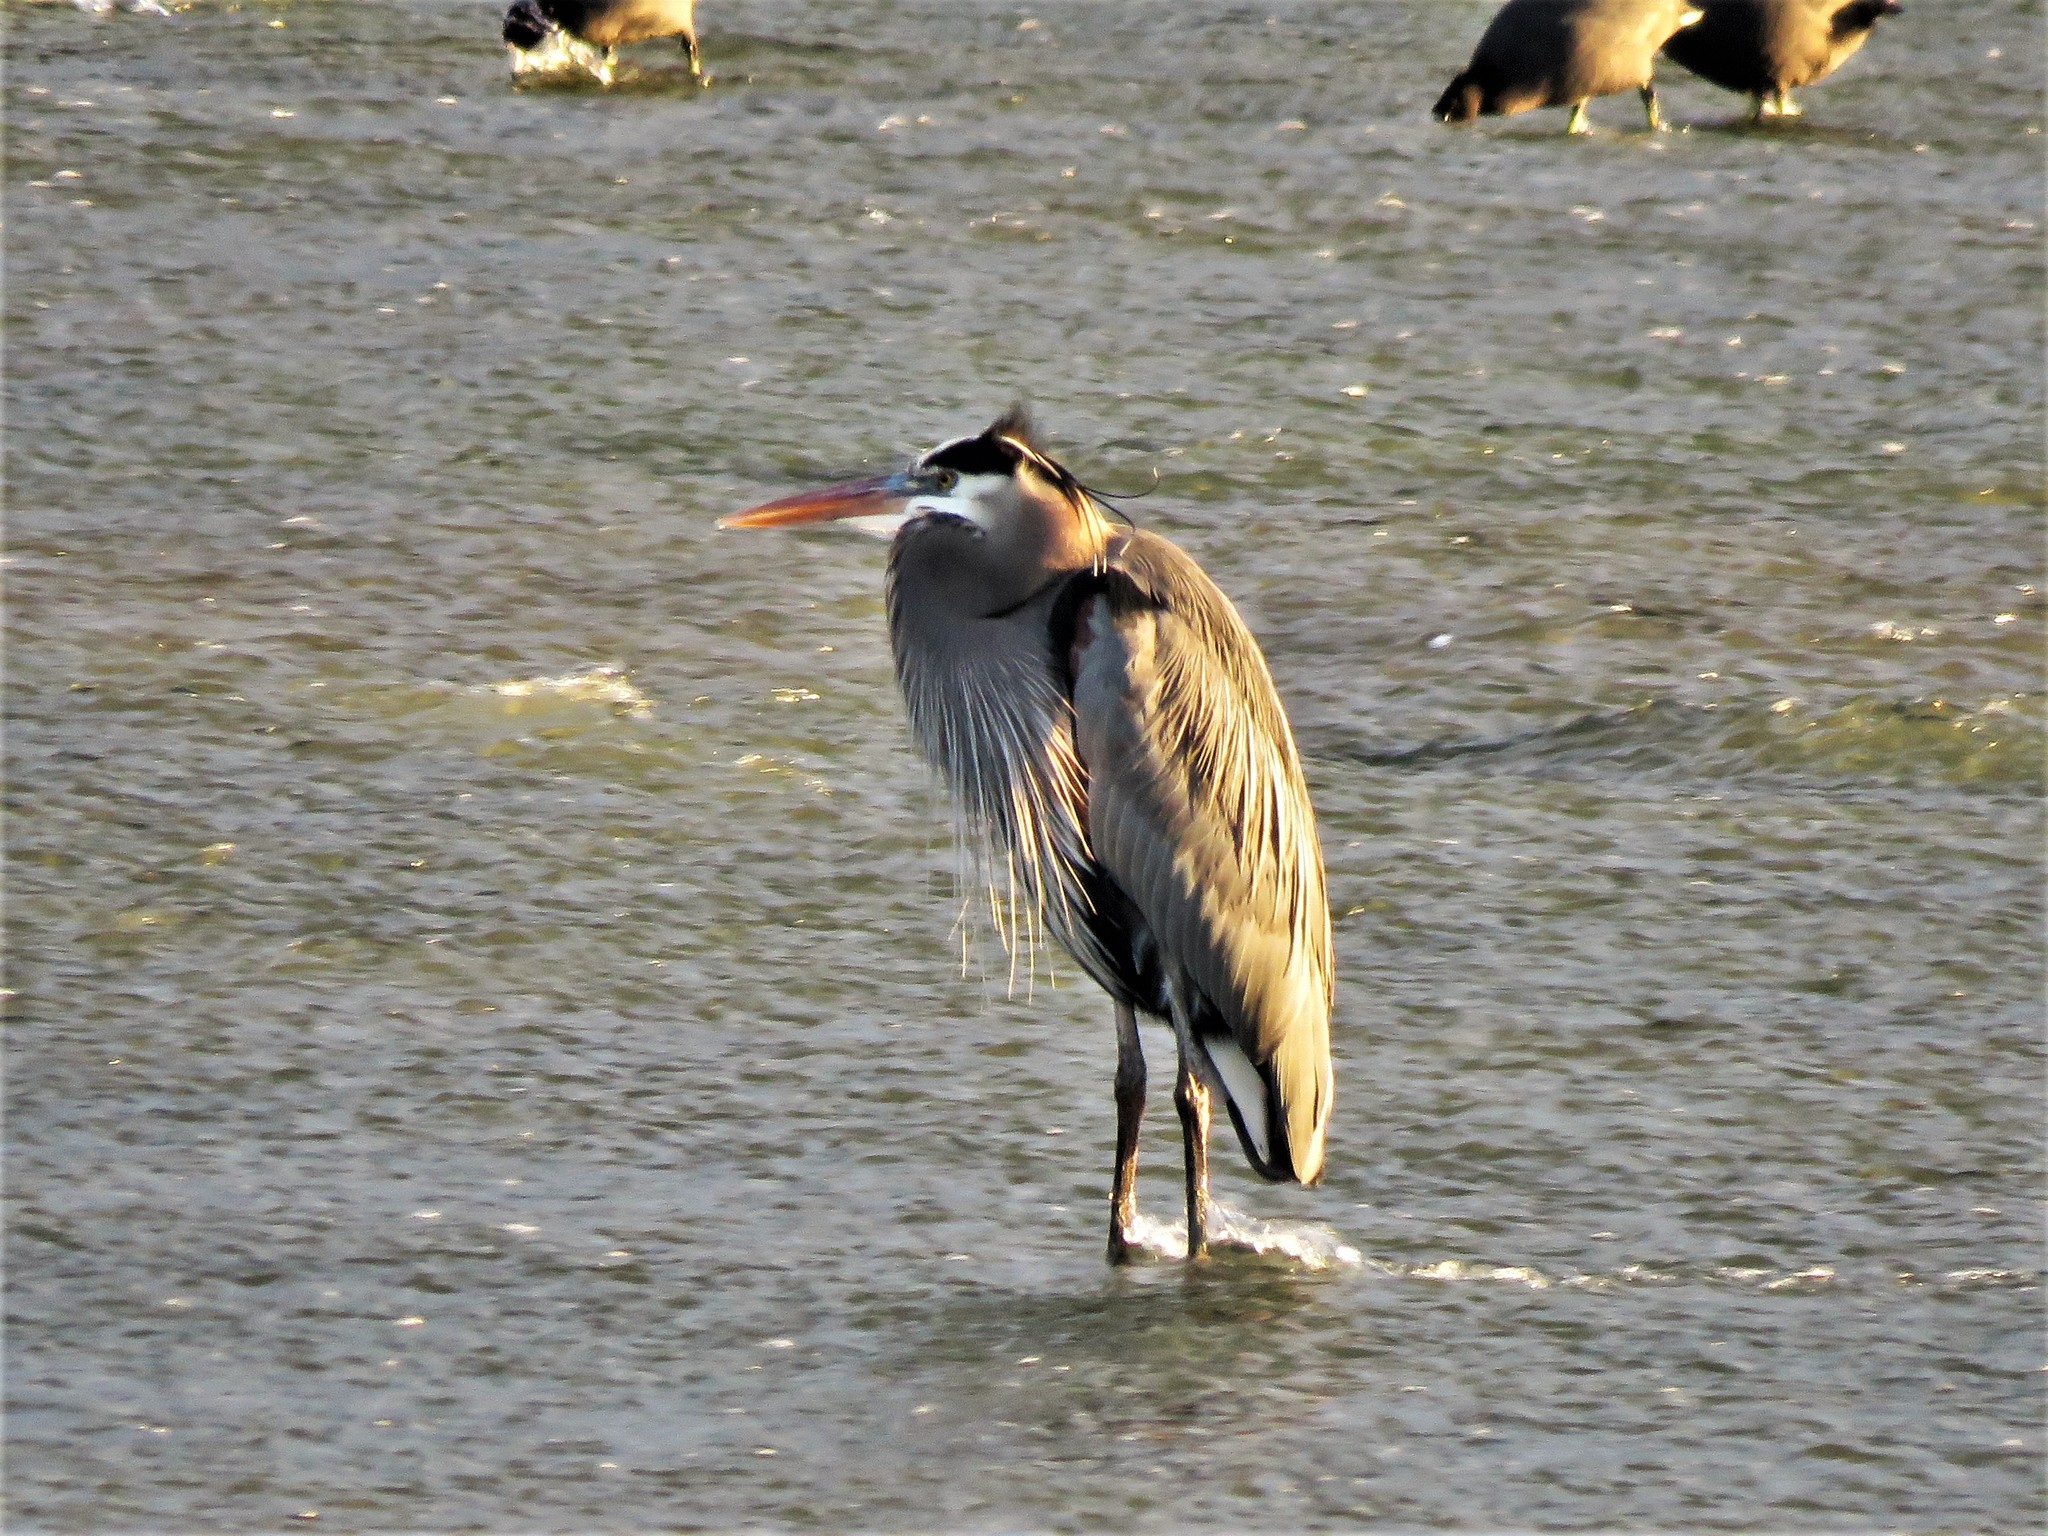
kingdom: Animalia
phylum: Chordata
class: Aves
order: Pelecaniformes
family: Ardeidae
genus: Ardea
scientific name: Ardea herodias
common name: Great blue heron
